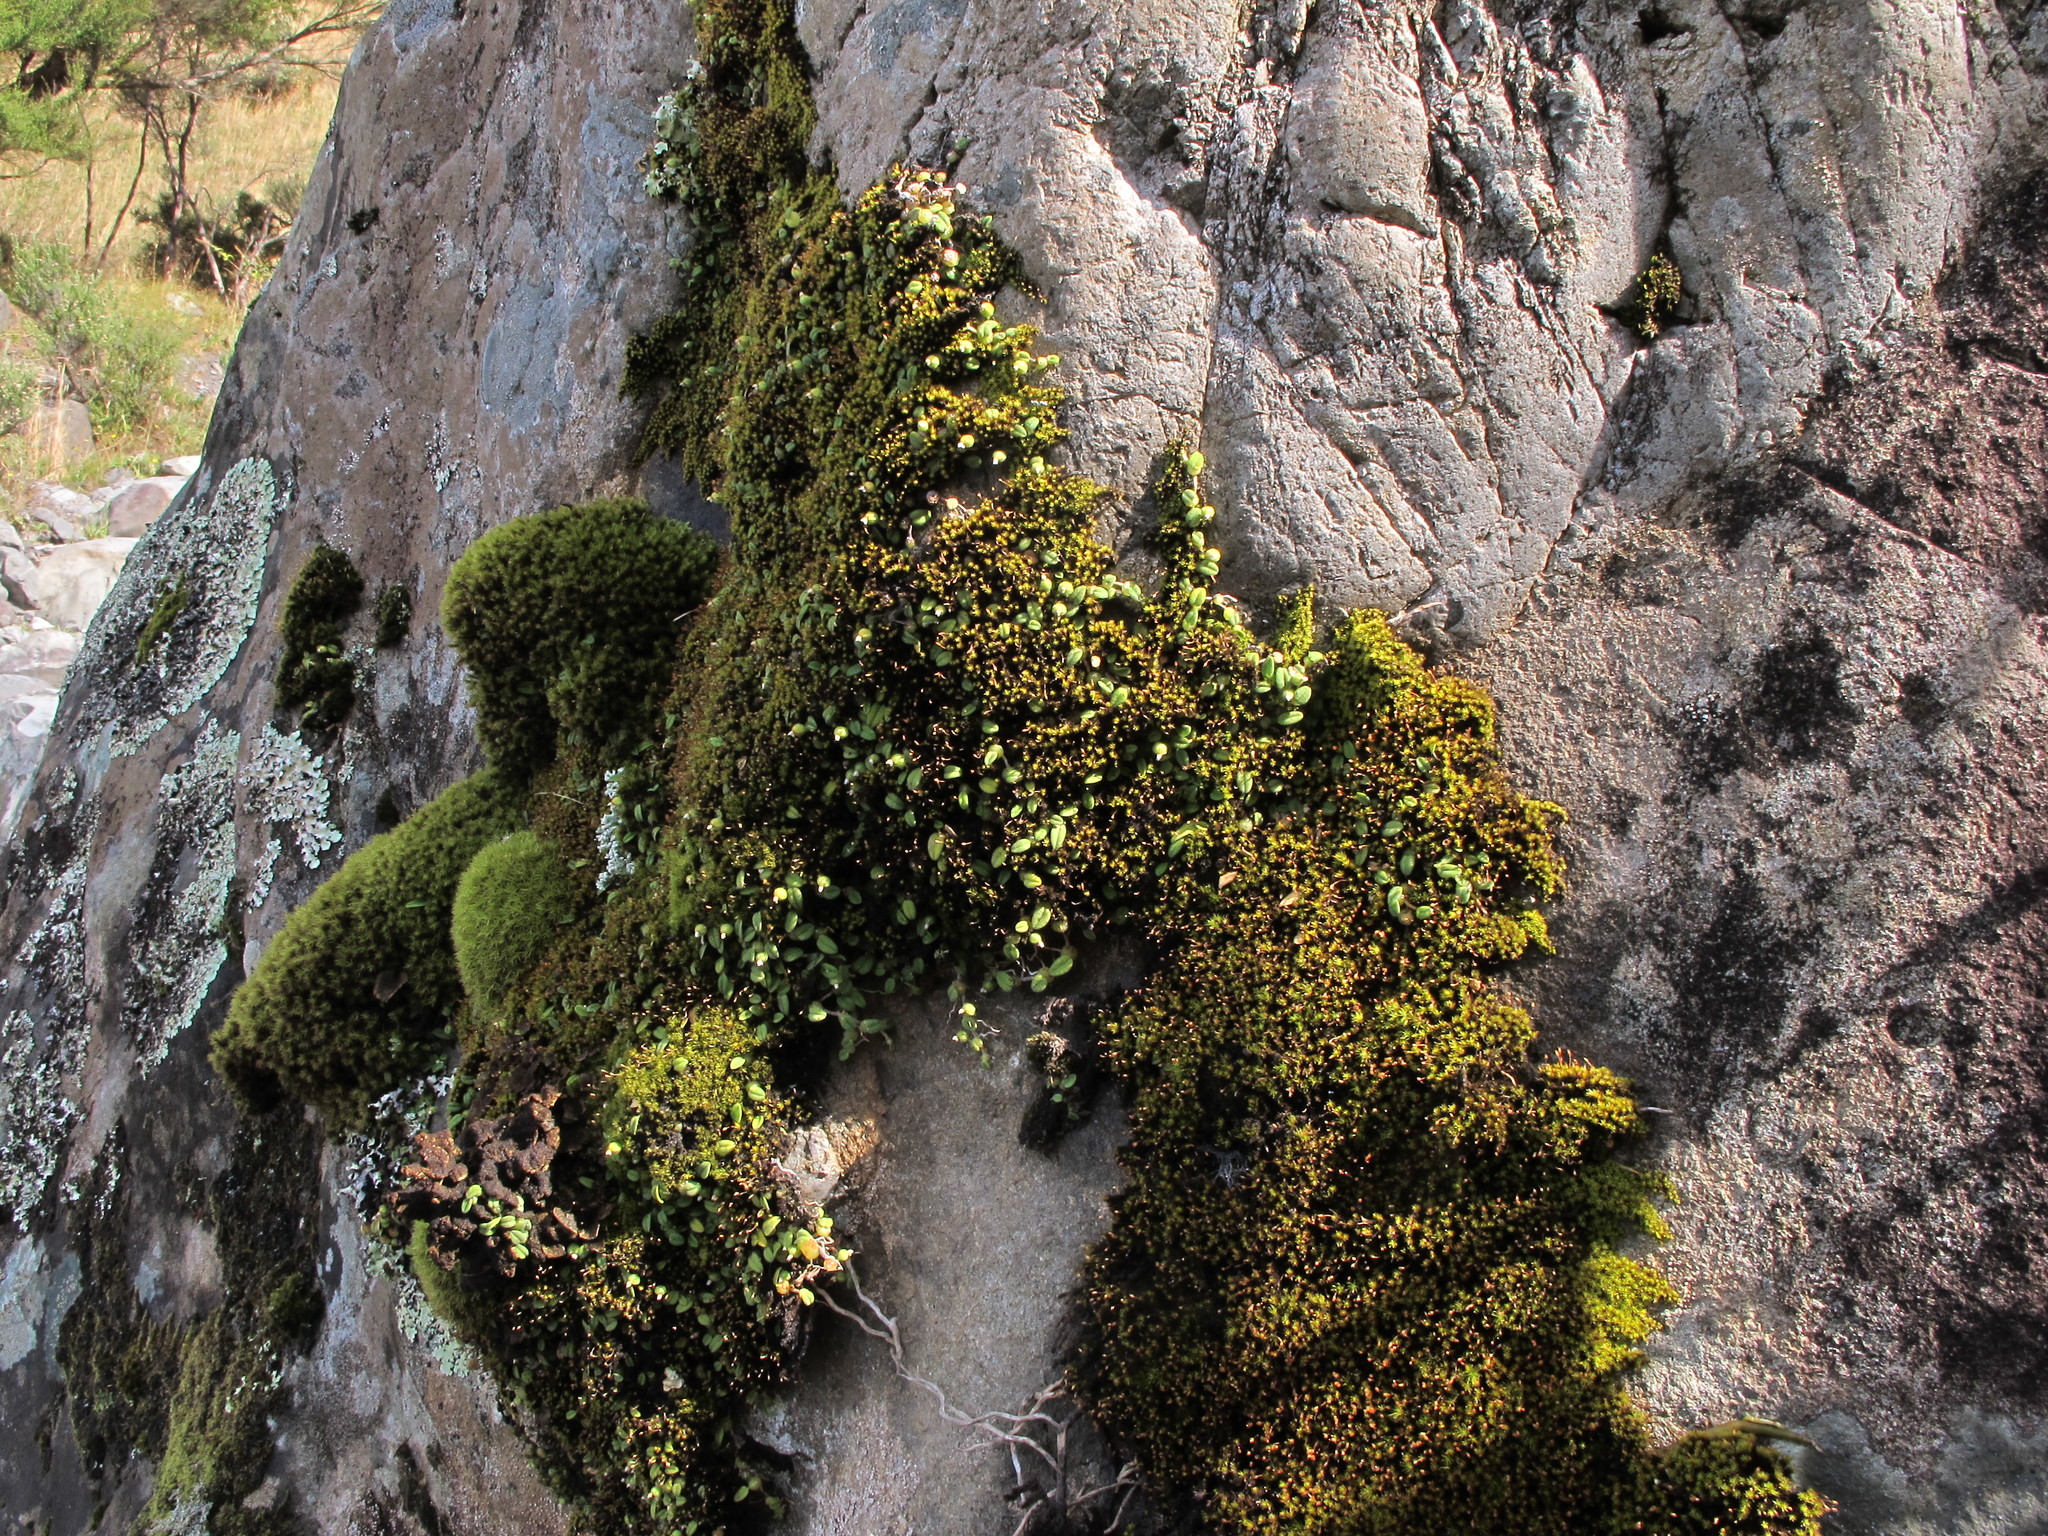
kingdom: Plantae
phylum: Tracheophyta
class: Liliopsida
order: Asparagales
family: Orchidaceae
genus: Bulbophyllum
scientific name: Bulbophyllum pygmaeum
